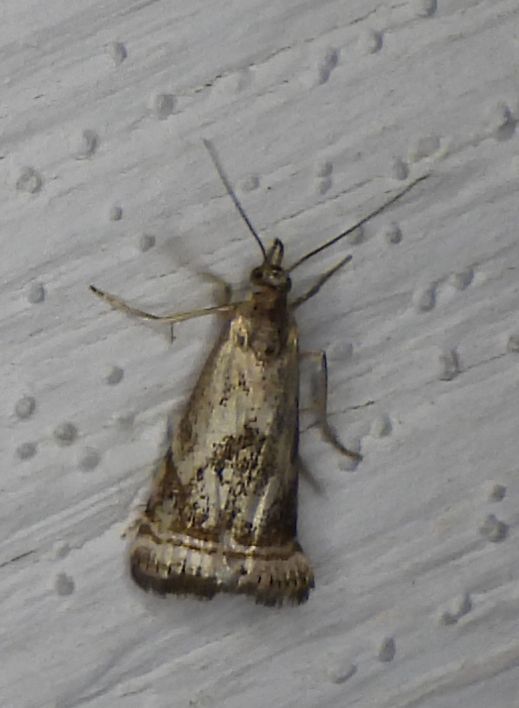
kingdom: Animalia
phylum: Arthropoda
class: Insecta
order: Lepidoptera
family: Crambidae
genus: Microcrambus
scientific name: Microcrambus elegans
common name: Elegant grass-veneer
